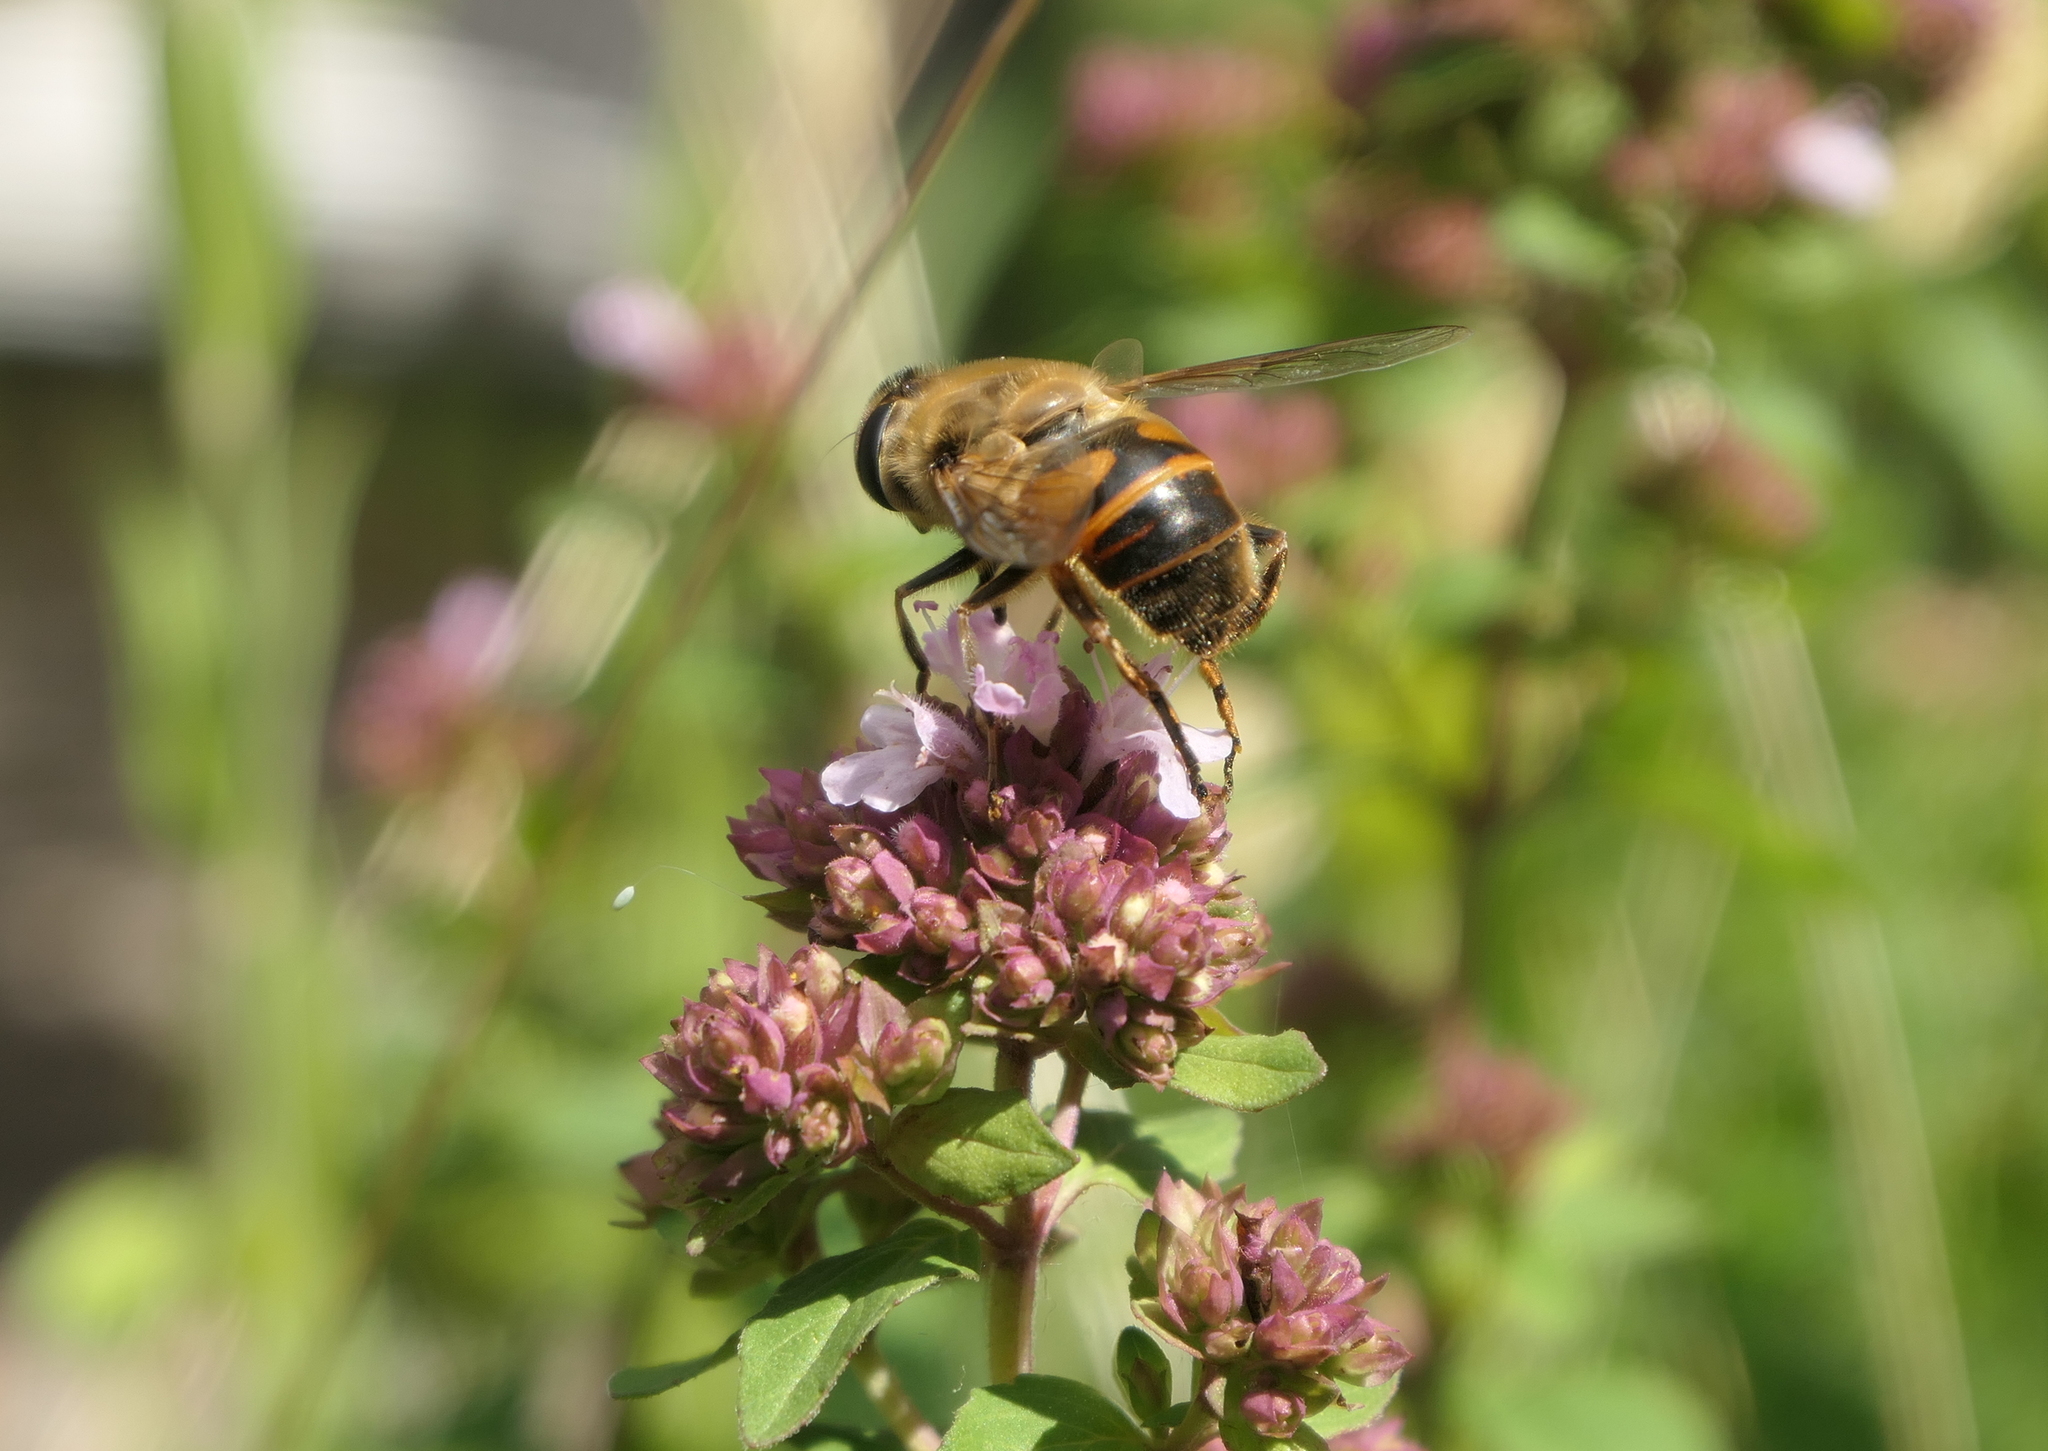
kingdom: Animalia
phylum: Arthropoda
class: Insecta
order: Diptera
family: Syrphidae
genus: Eristalis
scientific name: Eristalis tenax
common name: Drone fly
